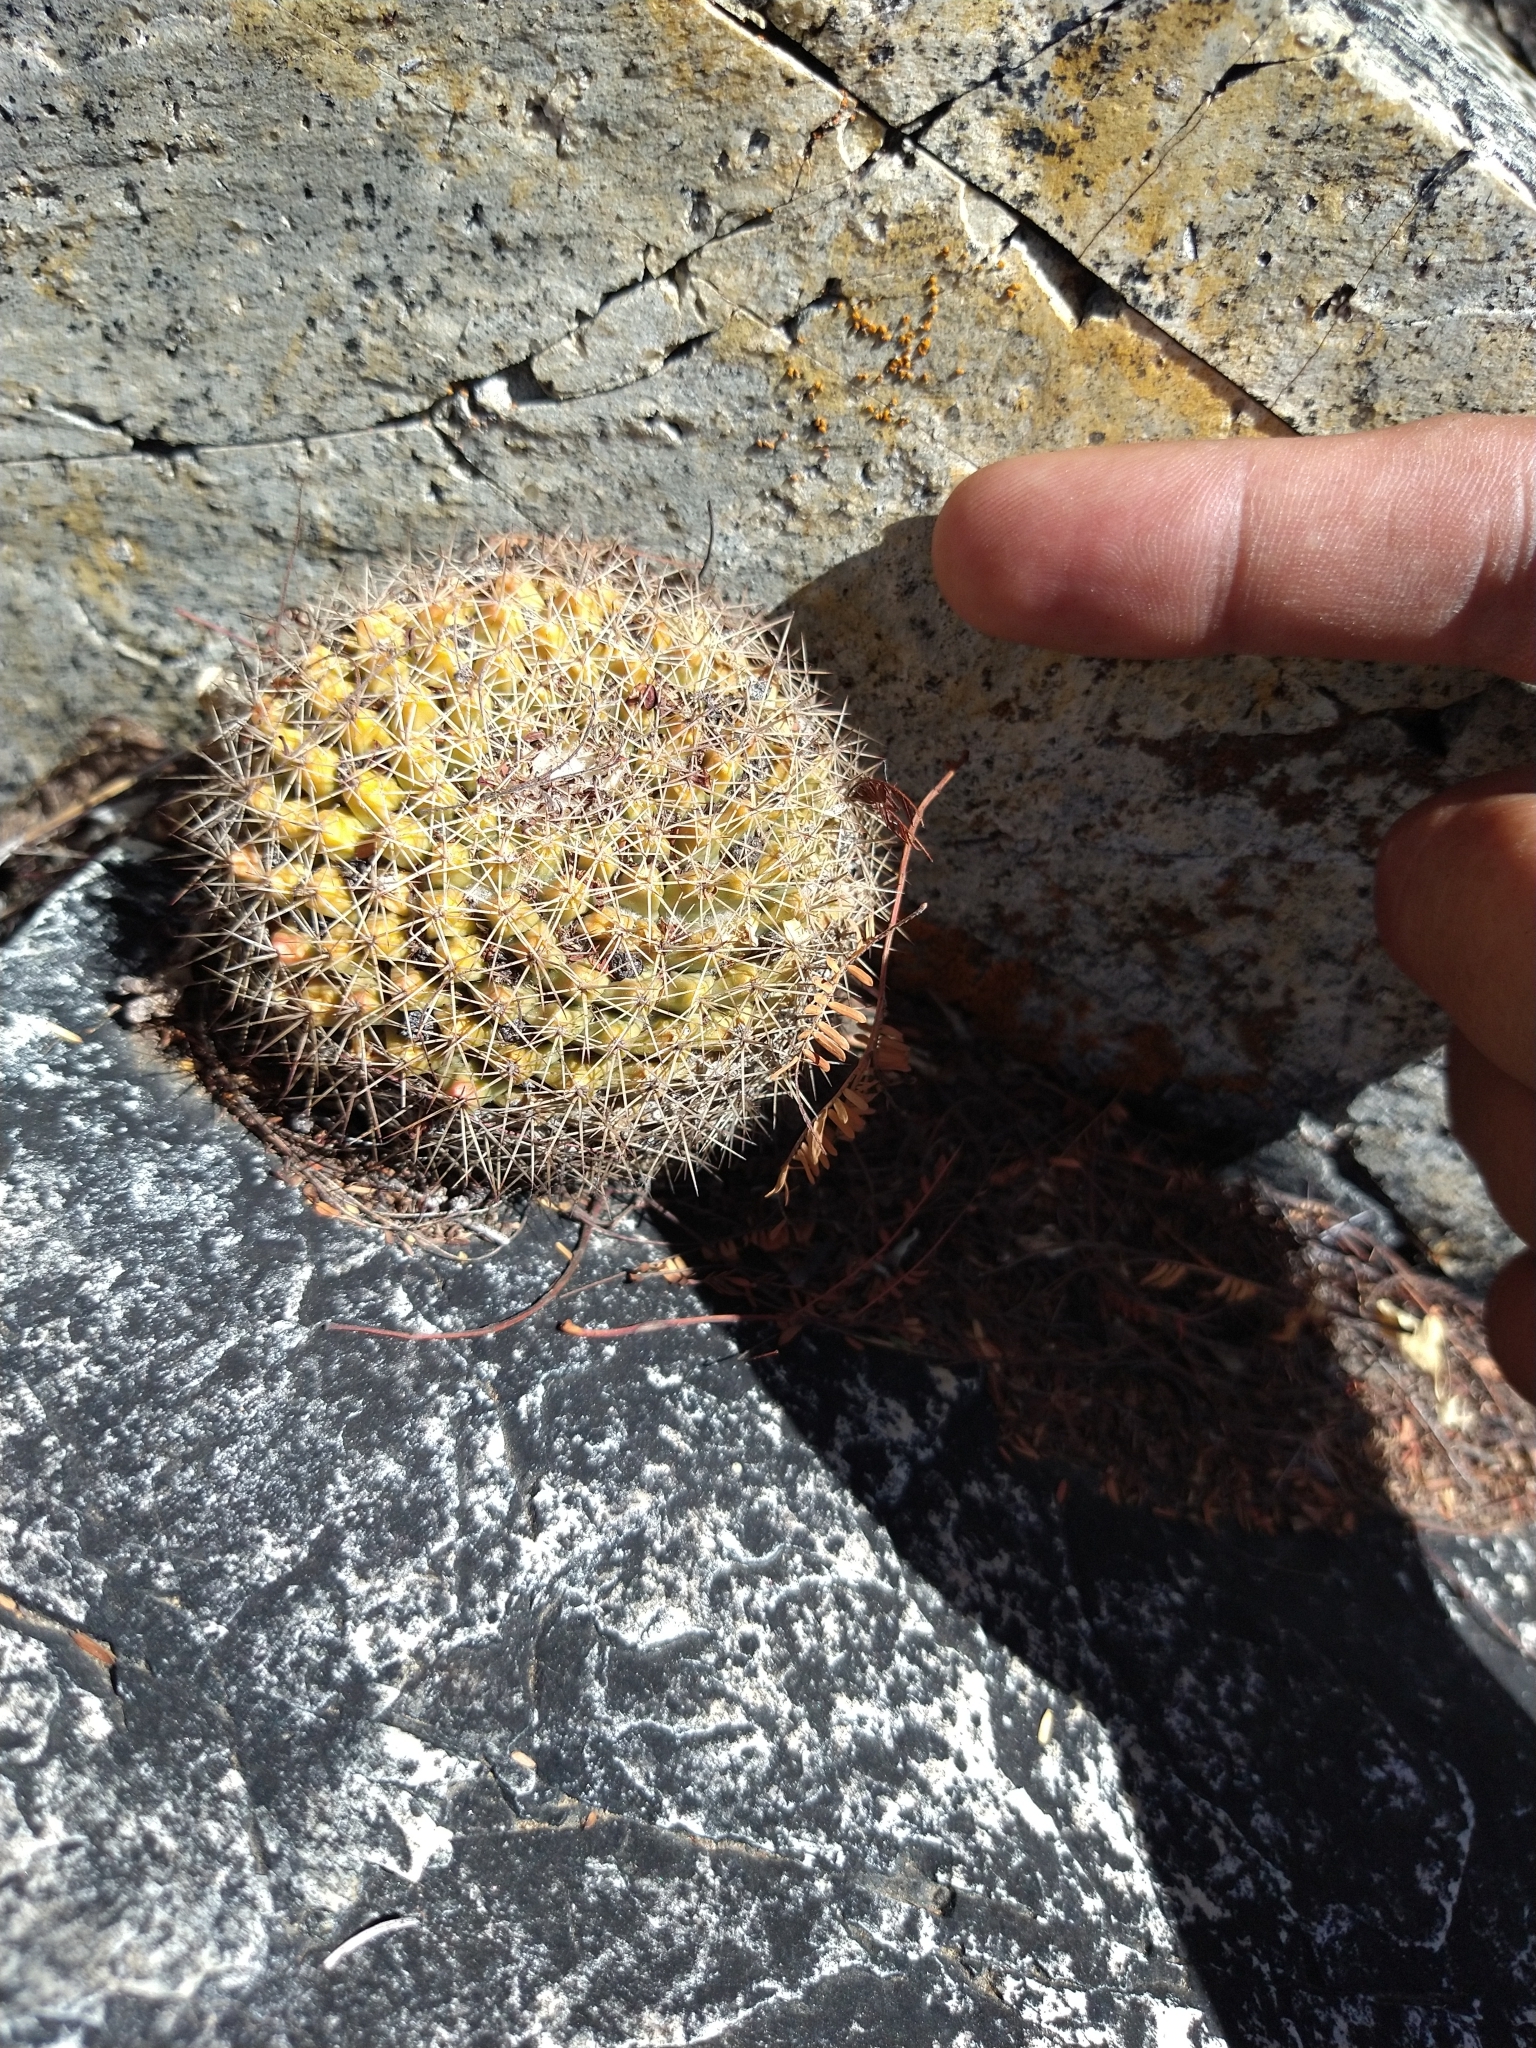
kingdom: Plantae
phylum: Tracheophyta
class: Magnoliopsida
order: Caryophyllales
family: Cactaceae
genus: Mammillaria
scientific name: Mammillaria petrophila
